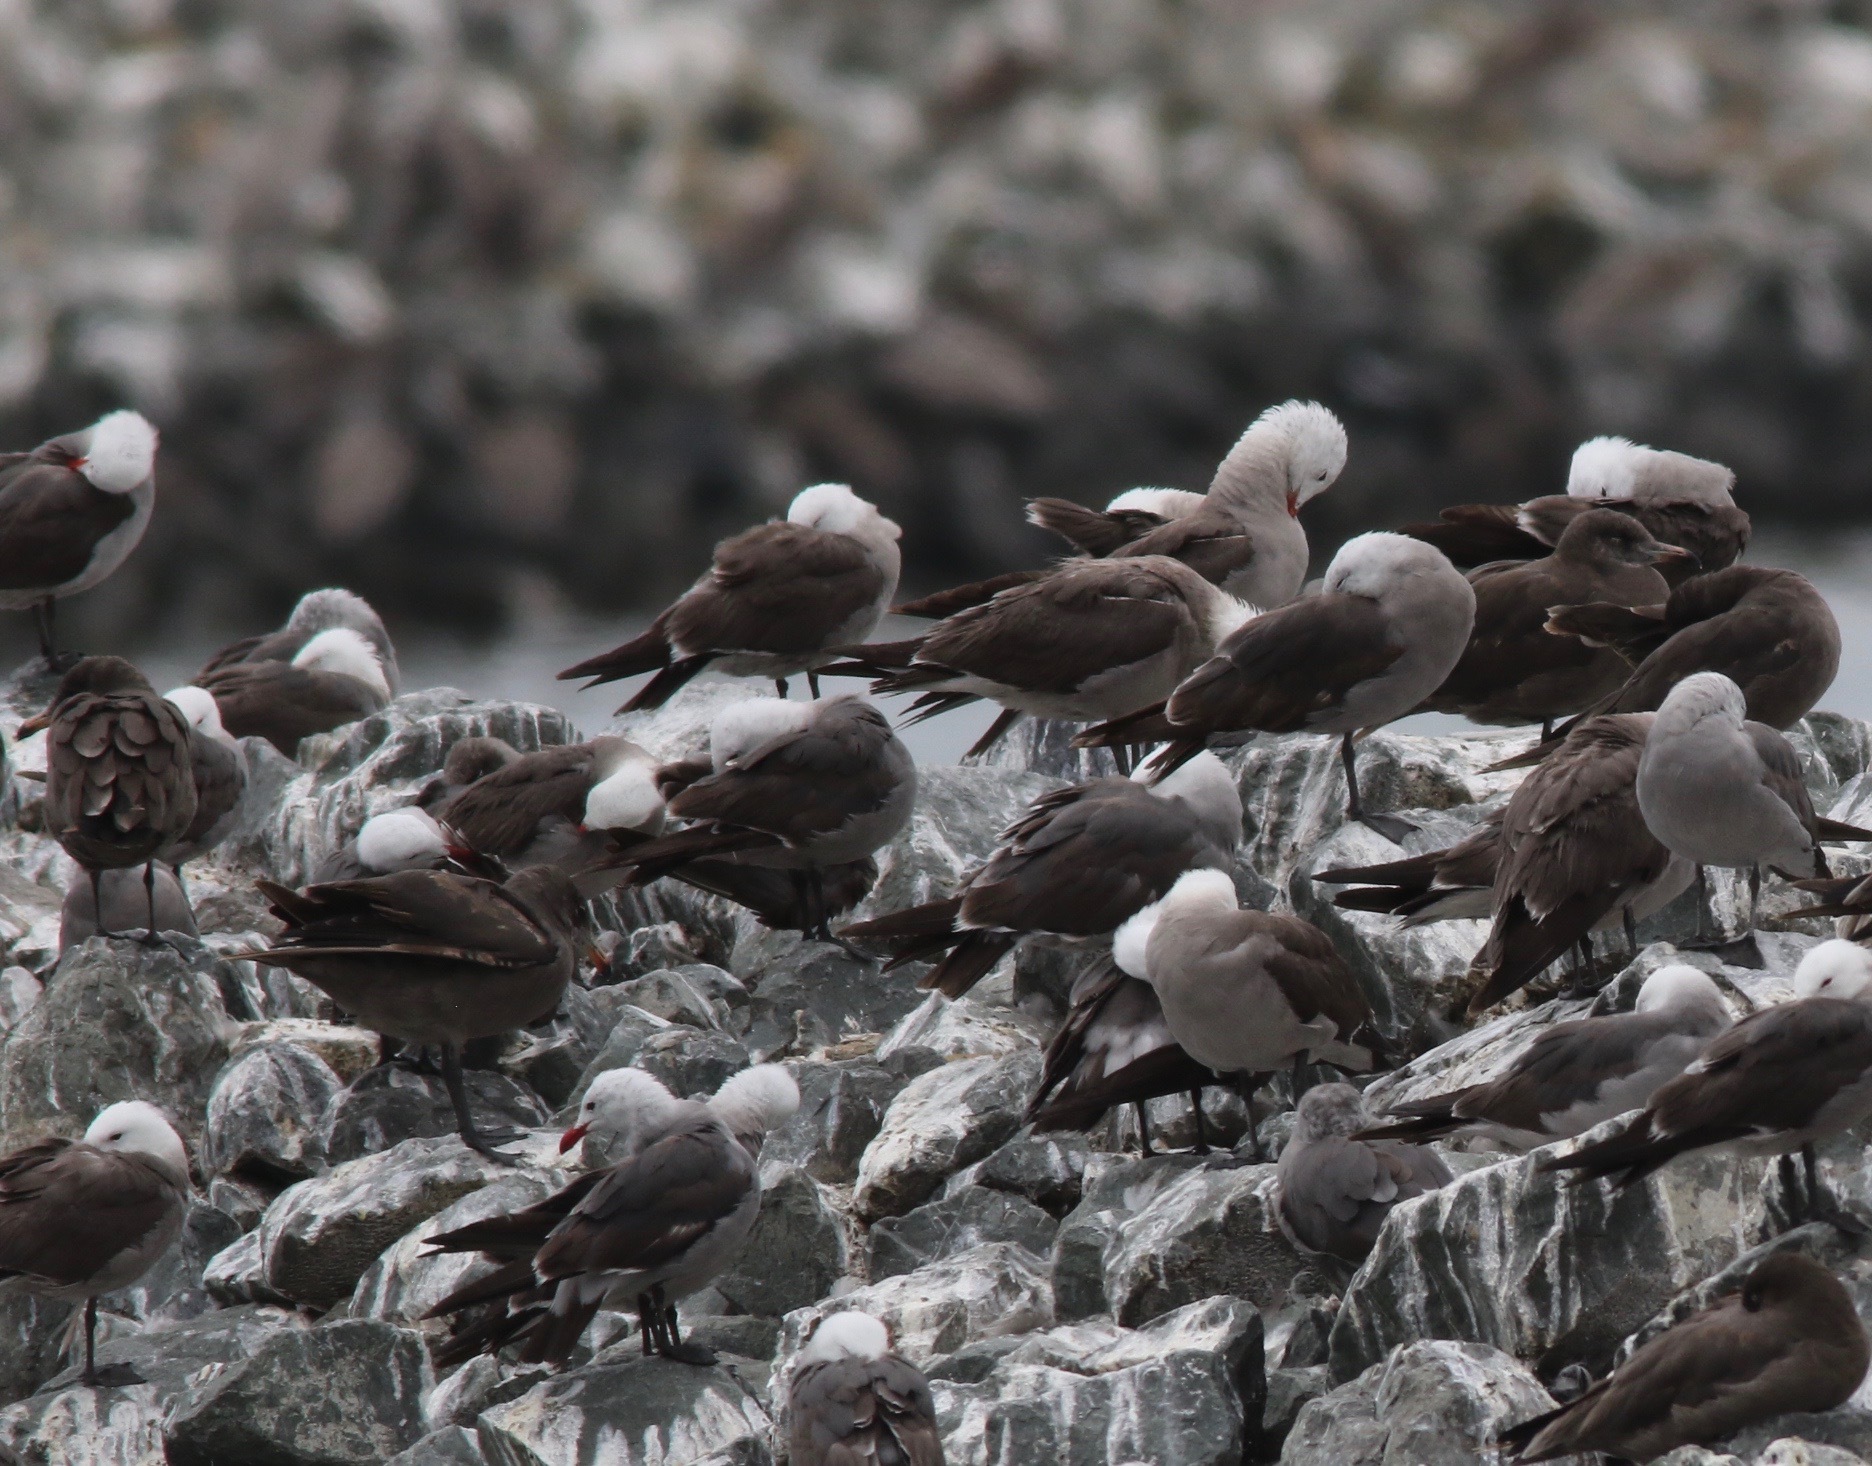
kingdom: Animalia
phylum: Chordata
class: Aves
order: Charadriiformes
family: Laridae
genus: Larus
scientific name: Larus heermanni
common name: Heermann's gull
